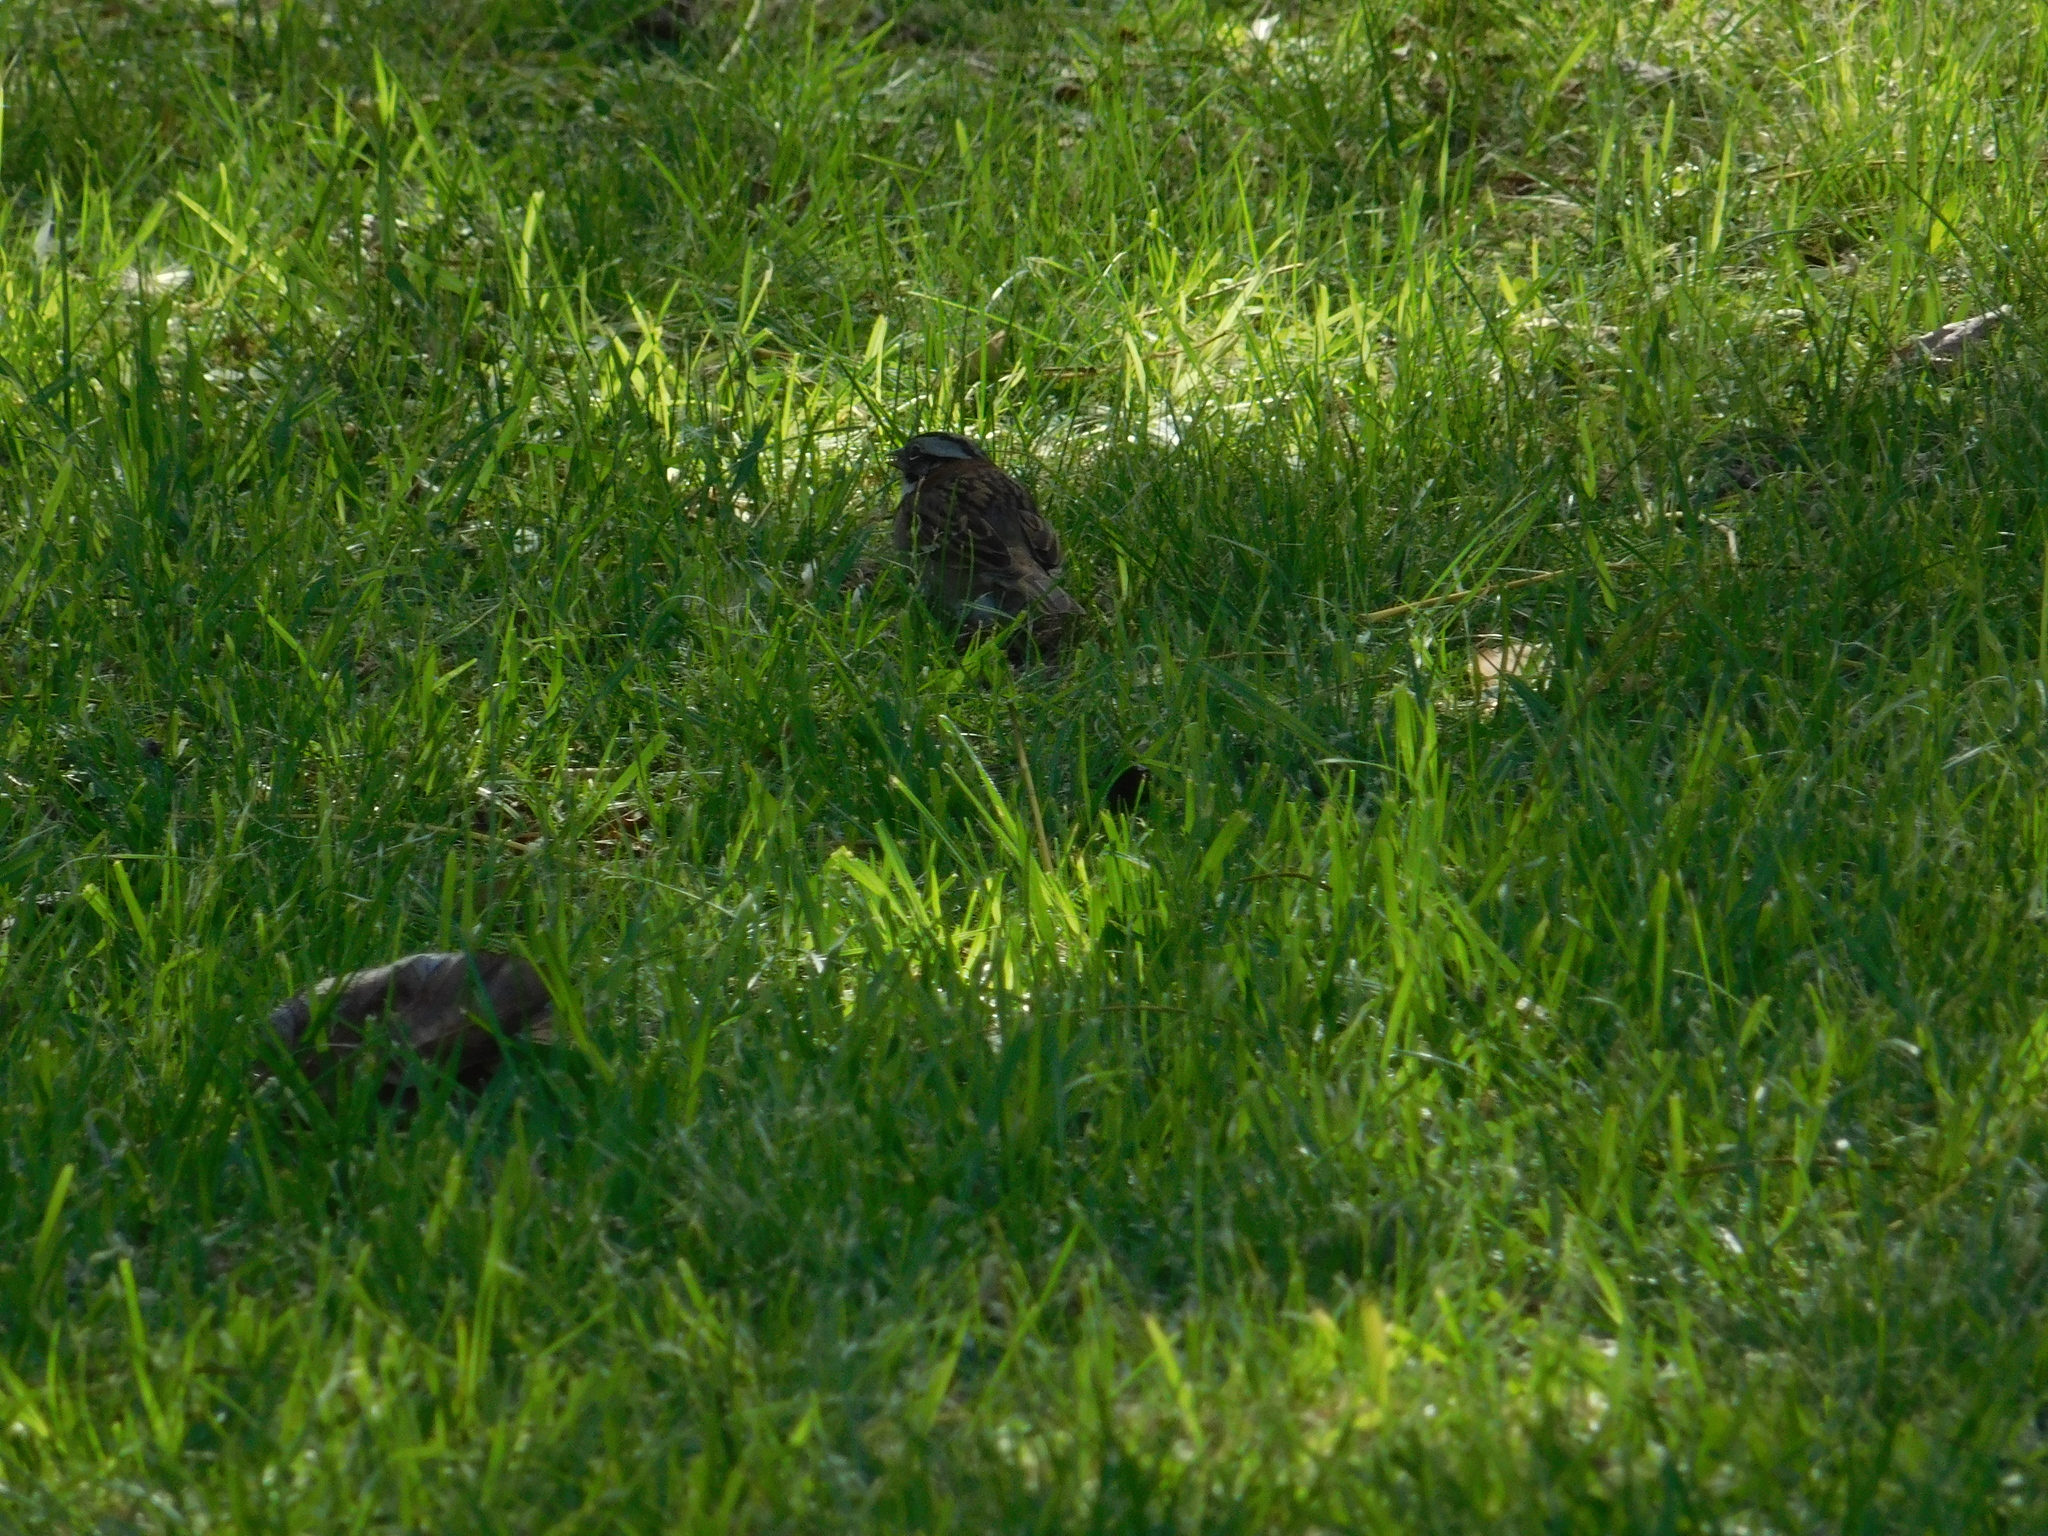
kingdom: Animalia
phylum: Chordata
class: Aves
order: Passeriformes
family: Passerellidae
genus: Zonotrichia
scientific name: Zonotrichia capensis
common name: Rufous-collared sparrow
